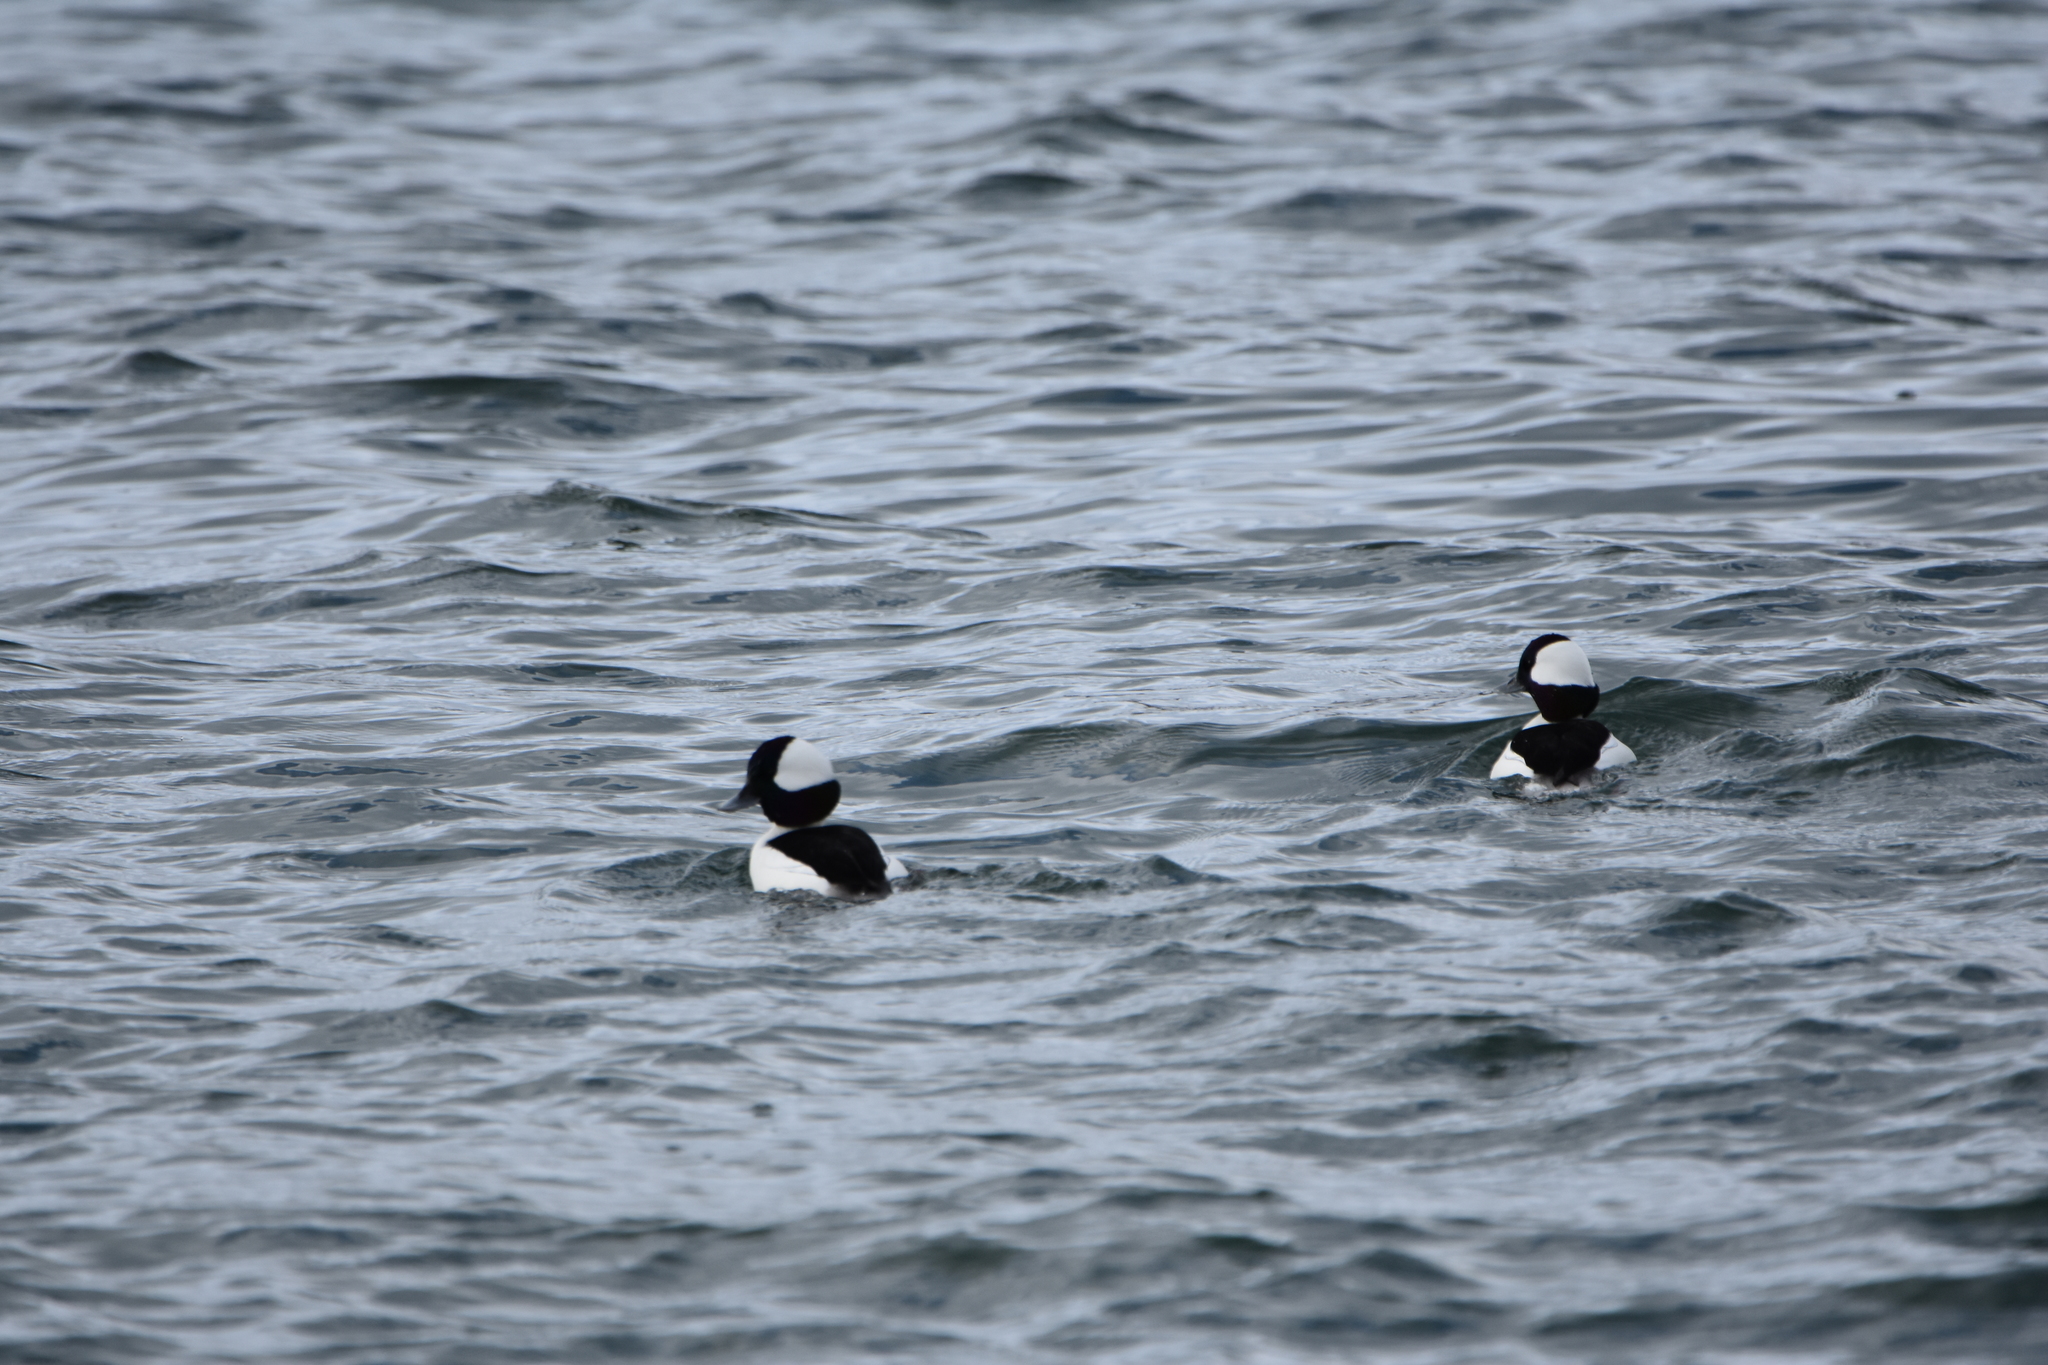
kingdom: Animalia
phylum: Chordata
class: Aves
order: Anseriformes
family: Anatidae
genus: Bucephala
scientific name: Bucephala albeola
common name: Bufflehead
